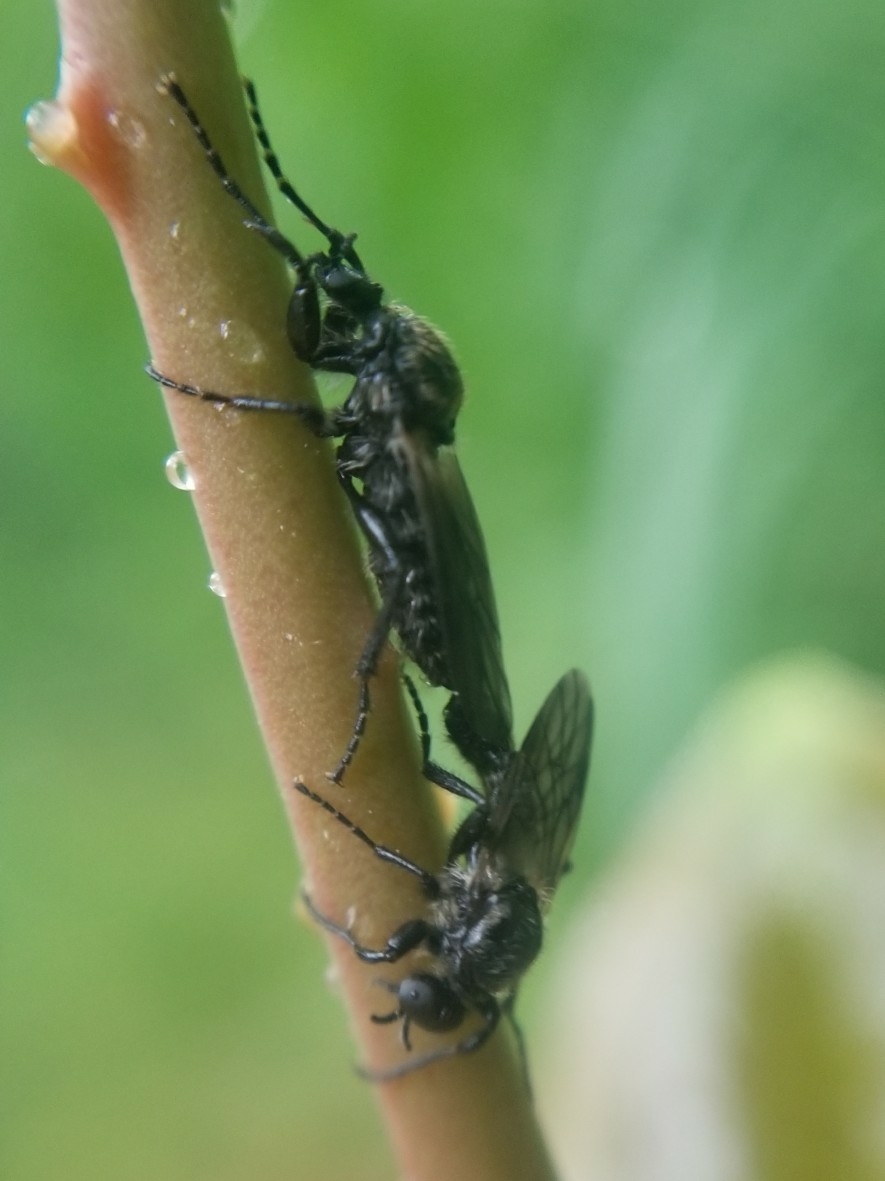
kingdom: Animalia
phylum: Arthropoda
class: Insecta
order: Diptera
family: Bibionidae
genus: Bibio
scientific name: Bibio albipennis
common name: White-winged march fly
